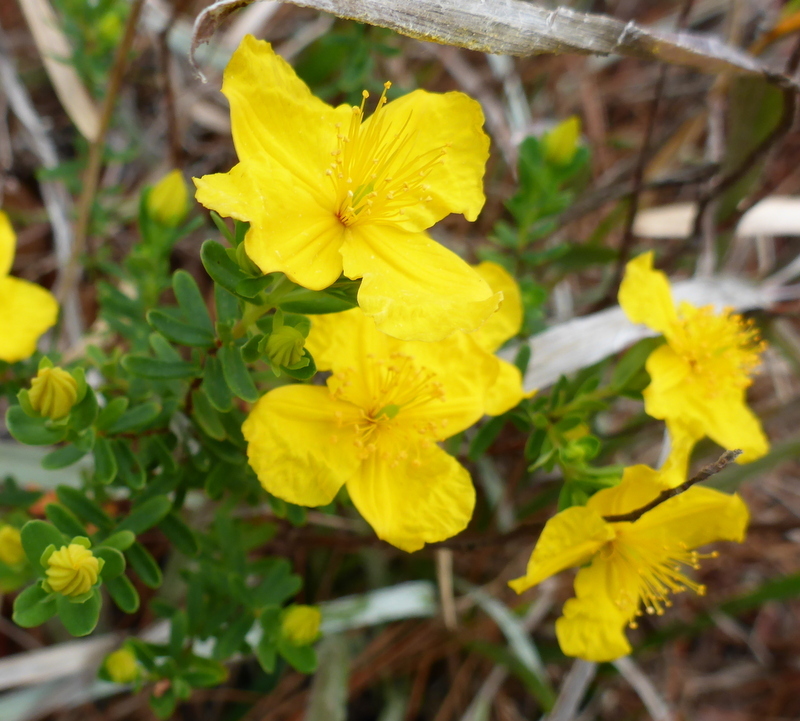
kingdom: Plantae
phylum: Tracheophyta
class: Magnoliopsida
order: Malpighiales
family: Hypericaceae
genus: Hypericum
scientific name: Hypericum microsepalum
